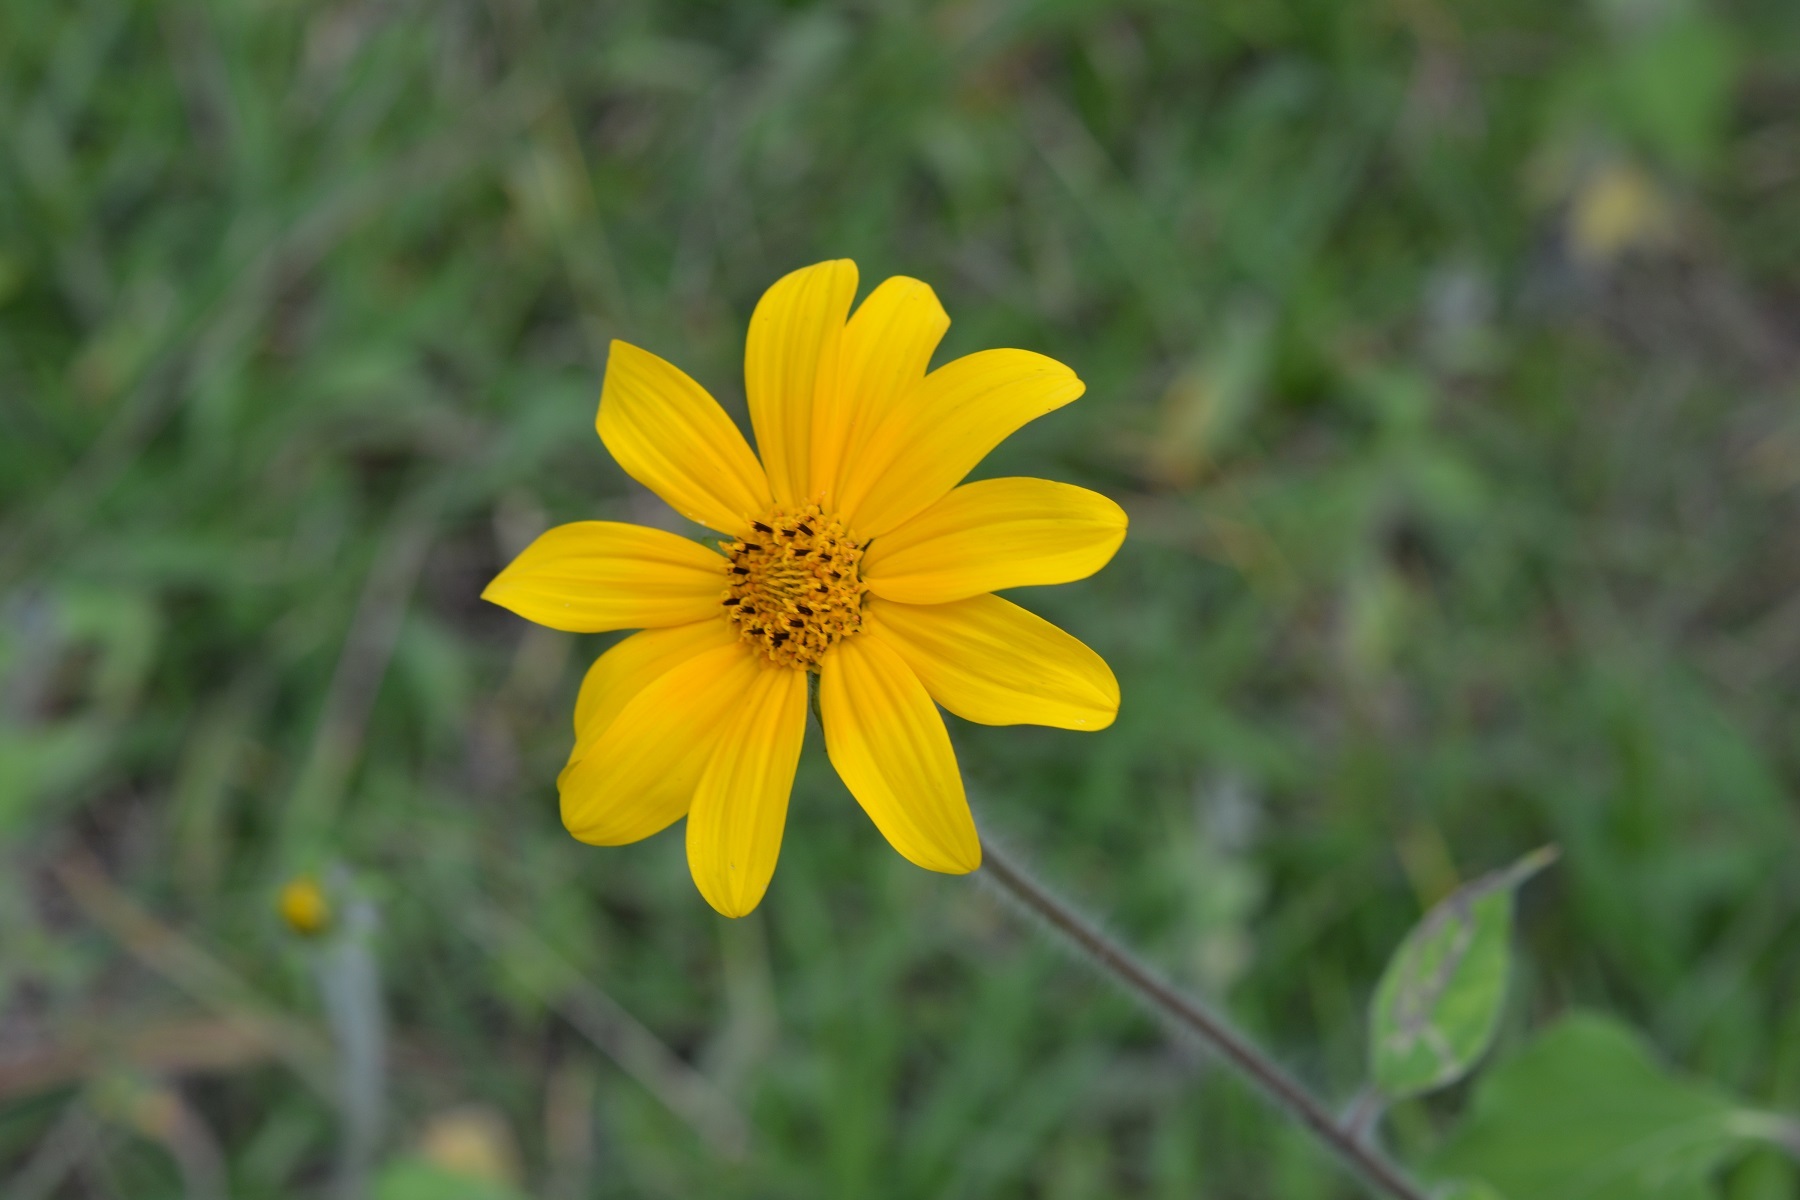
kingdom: Plantae
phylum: Tracheophyta
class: Magnoliopsida
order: Asterales
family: Asteraceae
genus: Tithonia
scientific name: Tithonia tubaeformis
